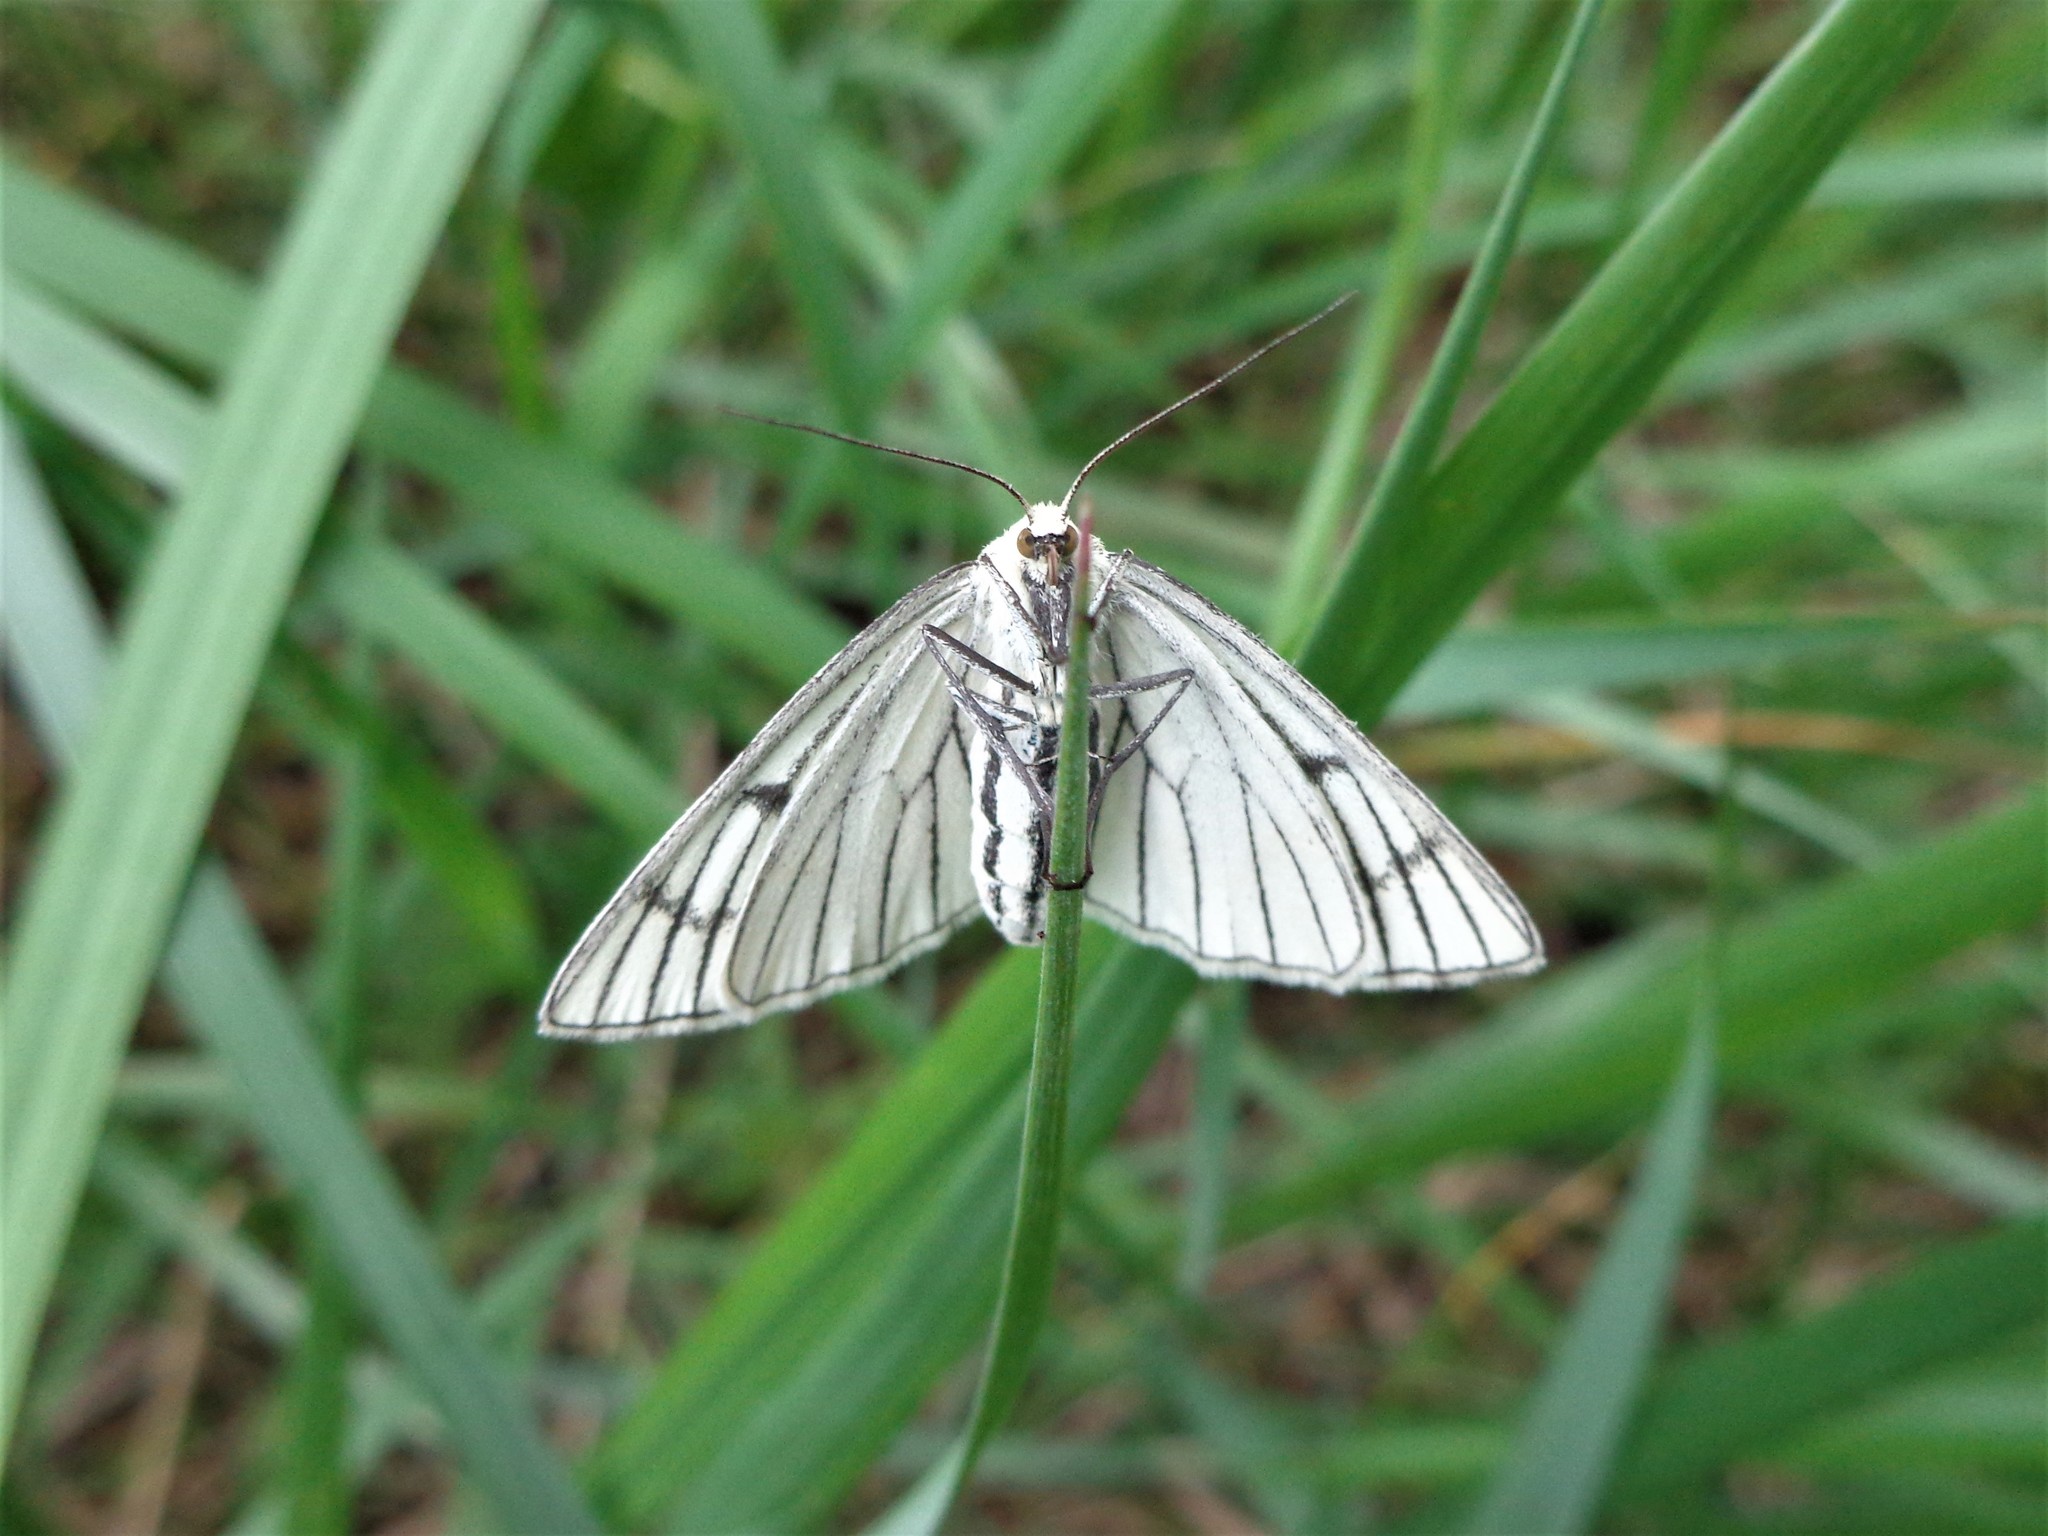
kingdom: Animalia
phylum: Arthropoda
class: Insecta
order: Lepidoptera
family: Geometridae
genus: Siona
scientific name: Siona lineata
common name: Black-veined moth
